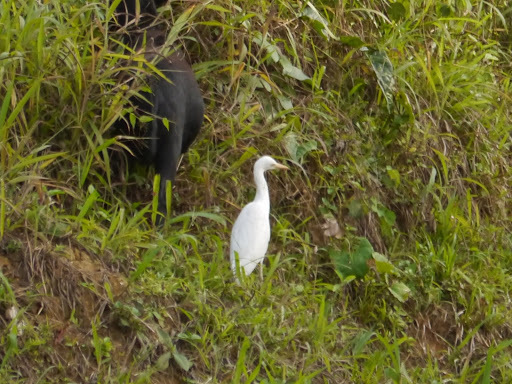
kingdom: Animalia
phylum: Chordata
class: Aves
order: Pelecaniformes
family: Ardeidae
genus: Bubulcus
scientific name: Bubulcus ibis
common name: Cattle egret
